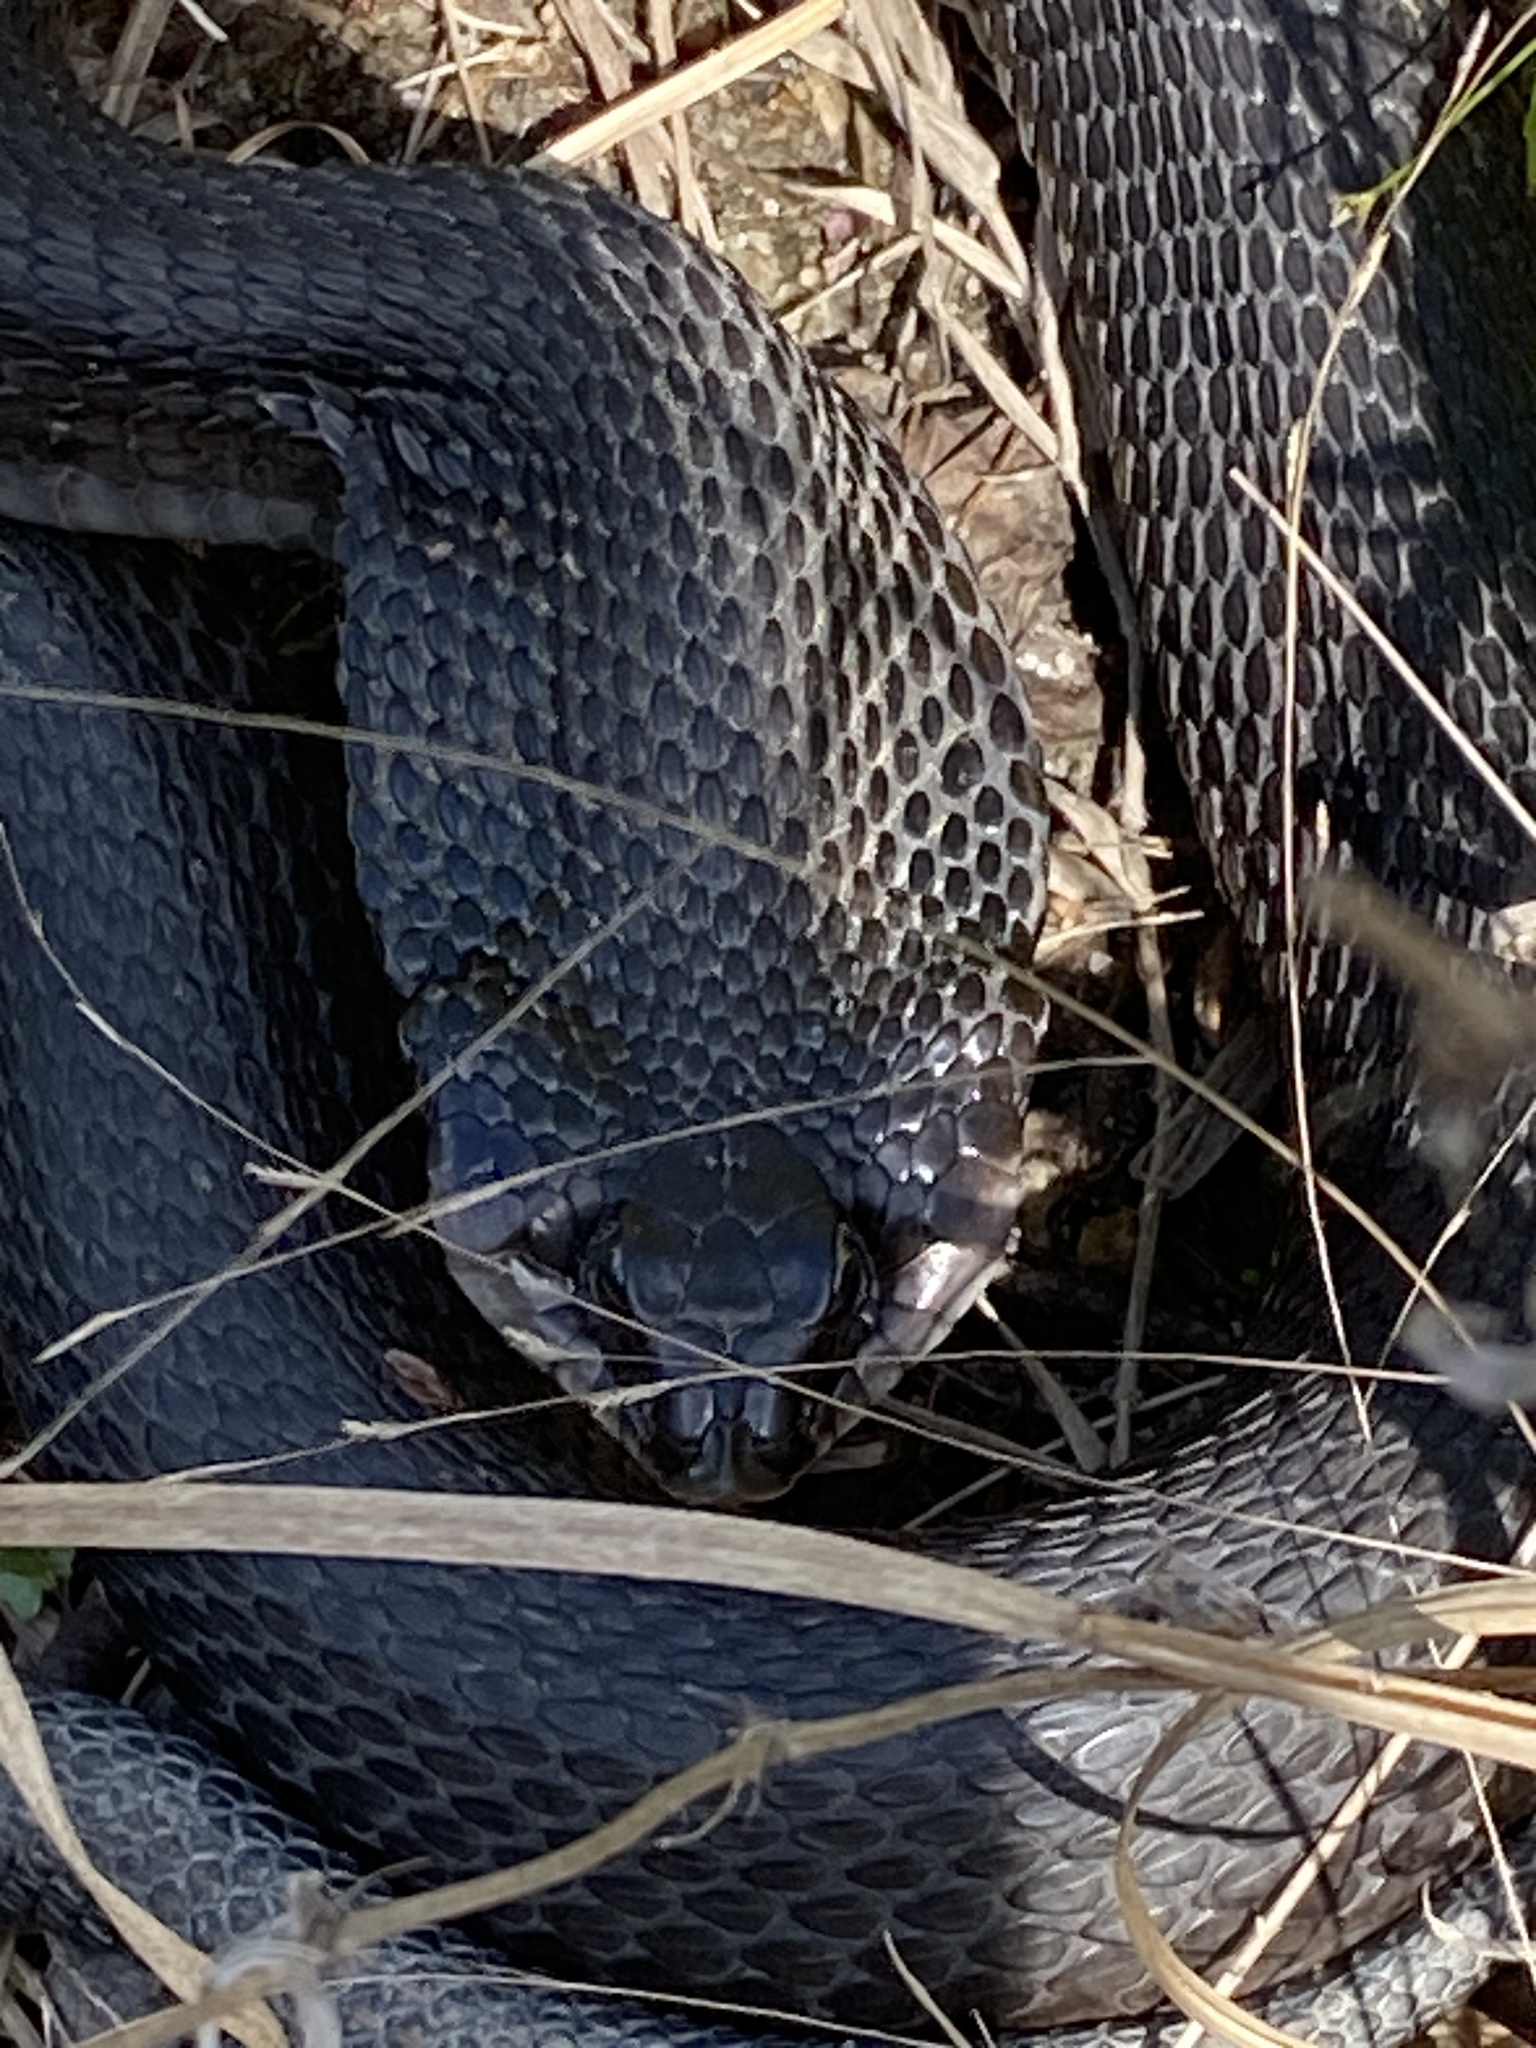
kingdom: Animalia
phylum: Chordata
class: Squamata
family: Colubridae
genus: Heterodon
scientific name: Heterodon platirhinos
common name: Eastern hognose snake
